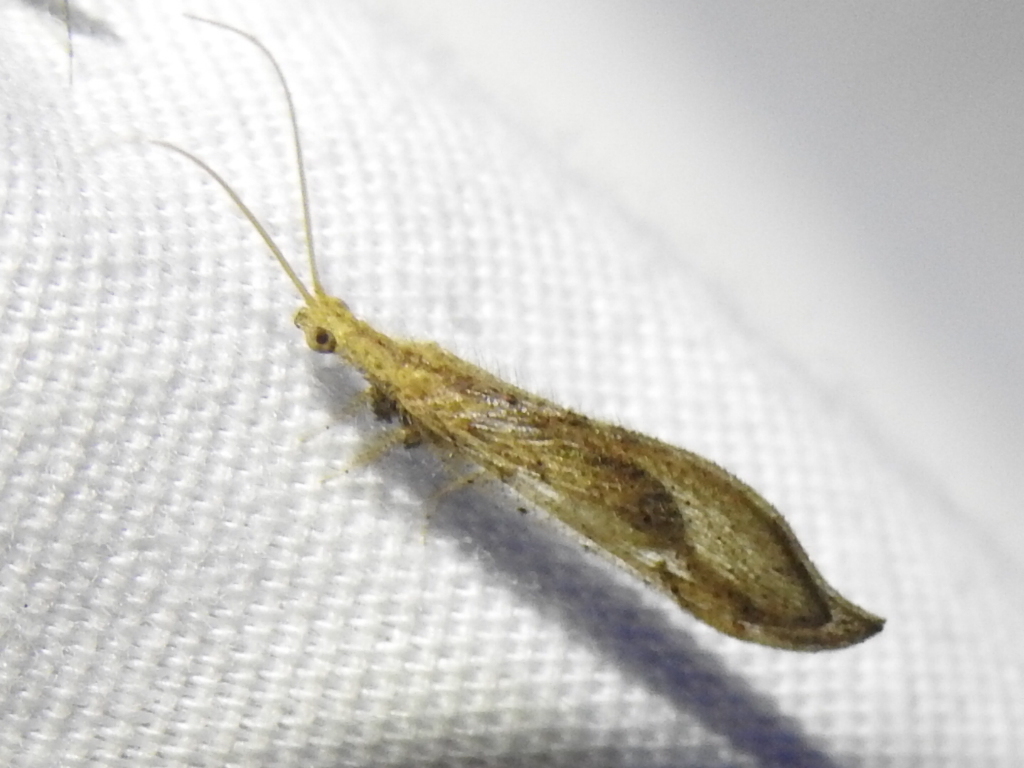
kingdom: Animalia
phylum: Arthropoda
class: Insecta
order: Neuroptera
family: Berothidae
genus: Lomamyia
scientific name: Lomamyia squamosa
